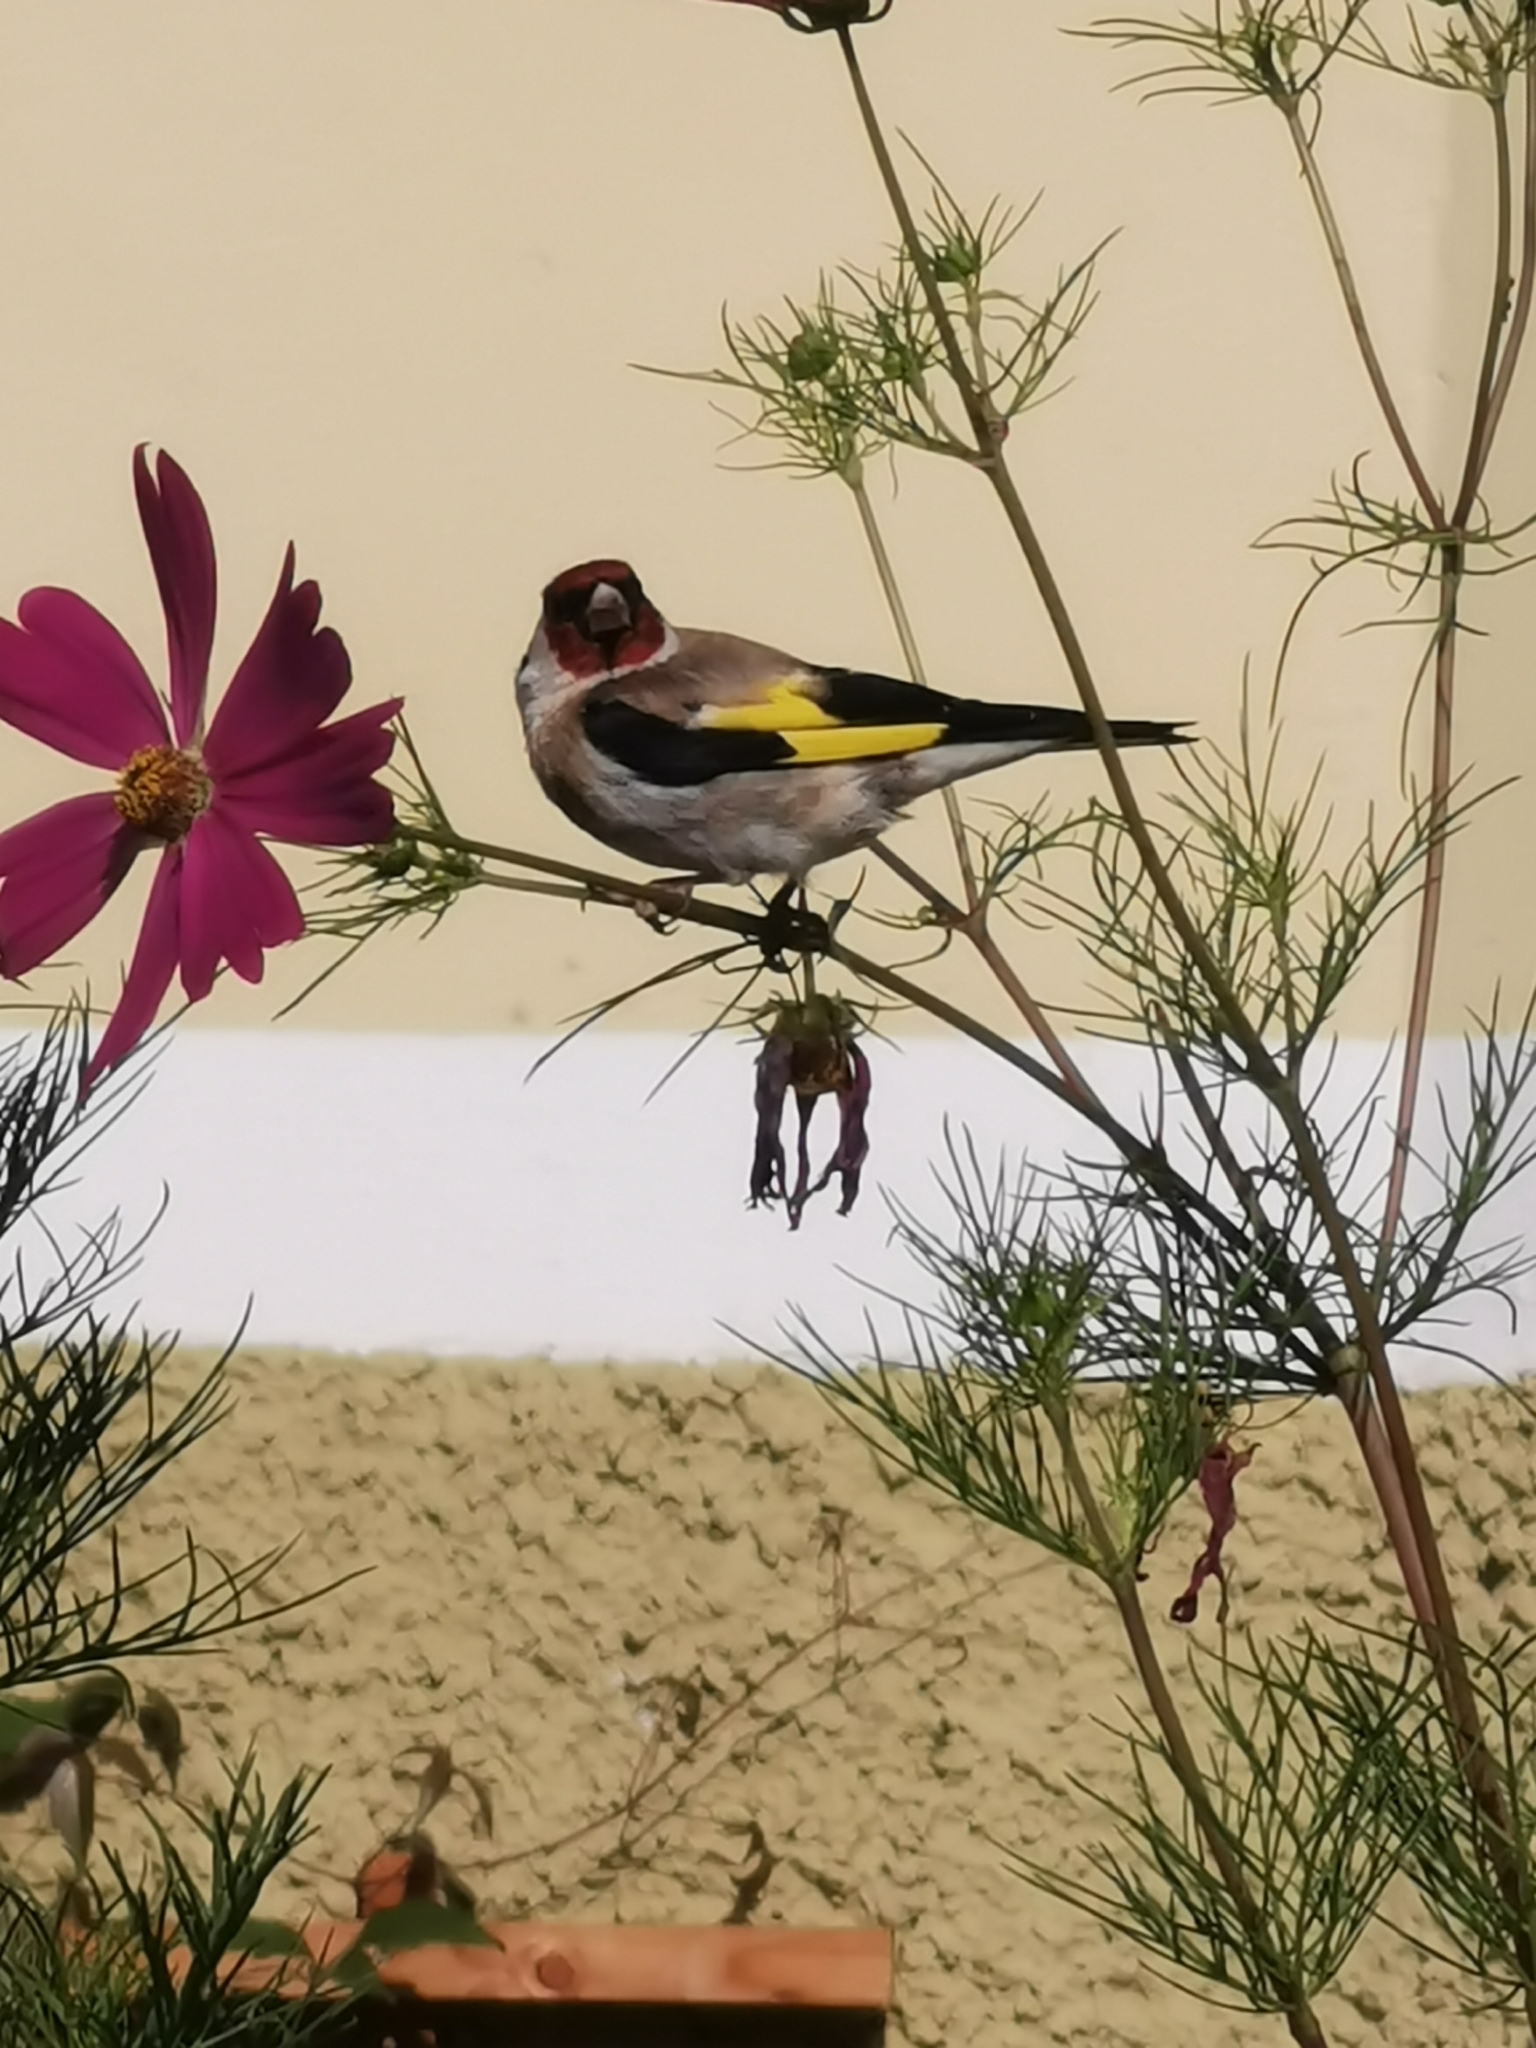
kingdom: Animalia
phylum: Chordata
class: Aves
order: Passeriformes
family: Fringillidae
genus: Carduelis
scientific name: Carduelis carduelis
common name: European goldfinch
